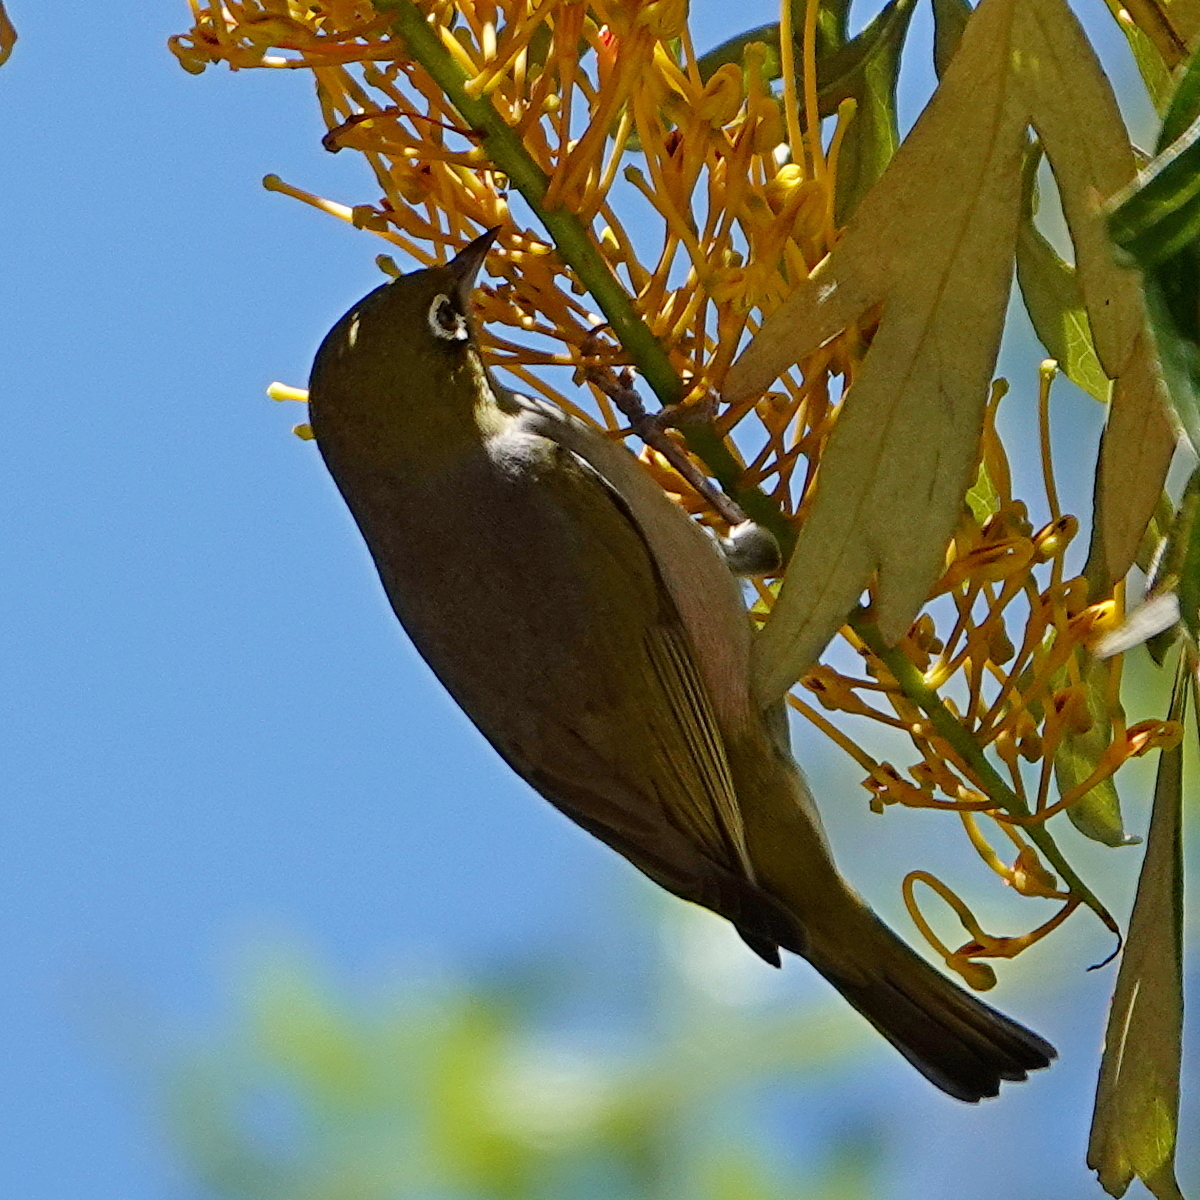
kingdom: Animalia
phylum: Chordata
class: Aves
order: Passeriformes
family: Zosteropidae
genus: Zosterops
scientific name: Zosterops lateralis
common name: Silvereye
